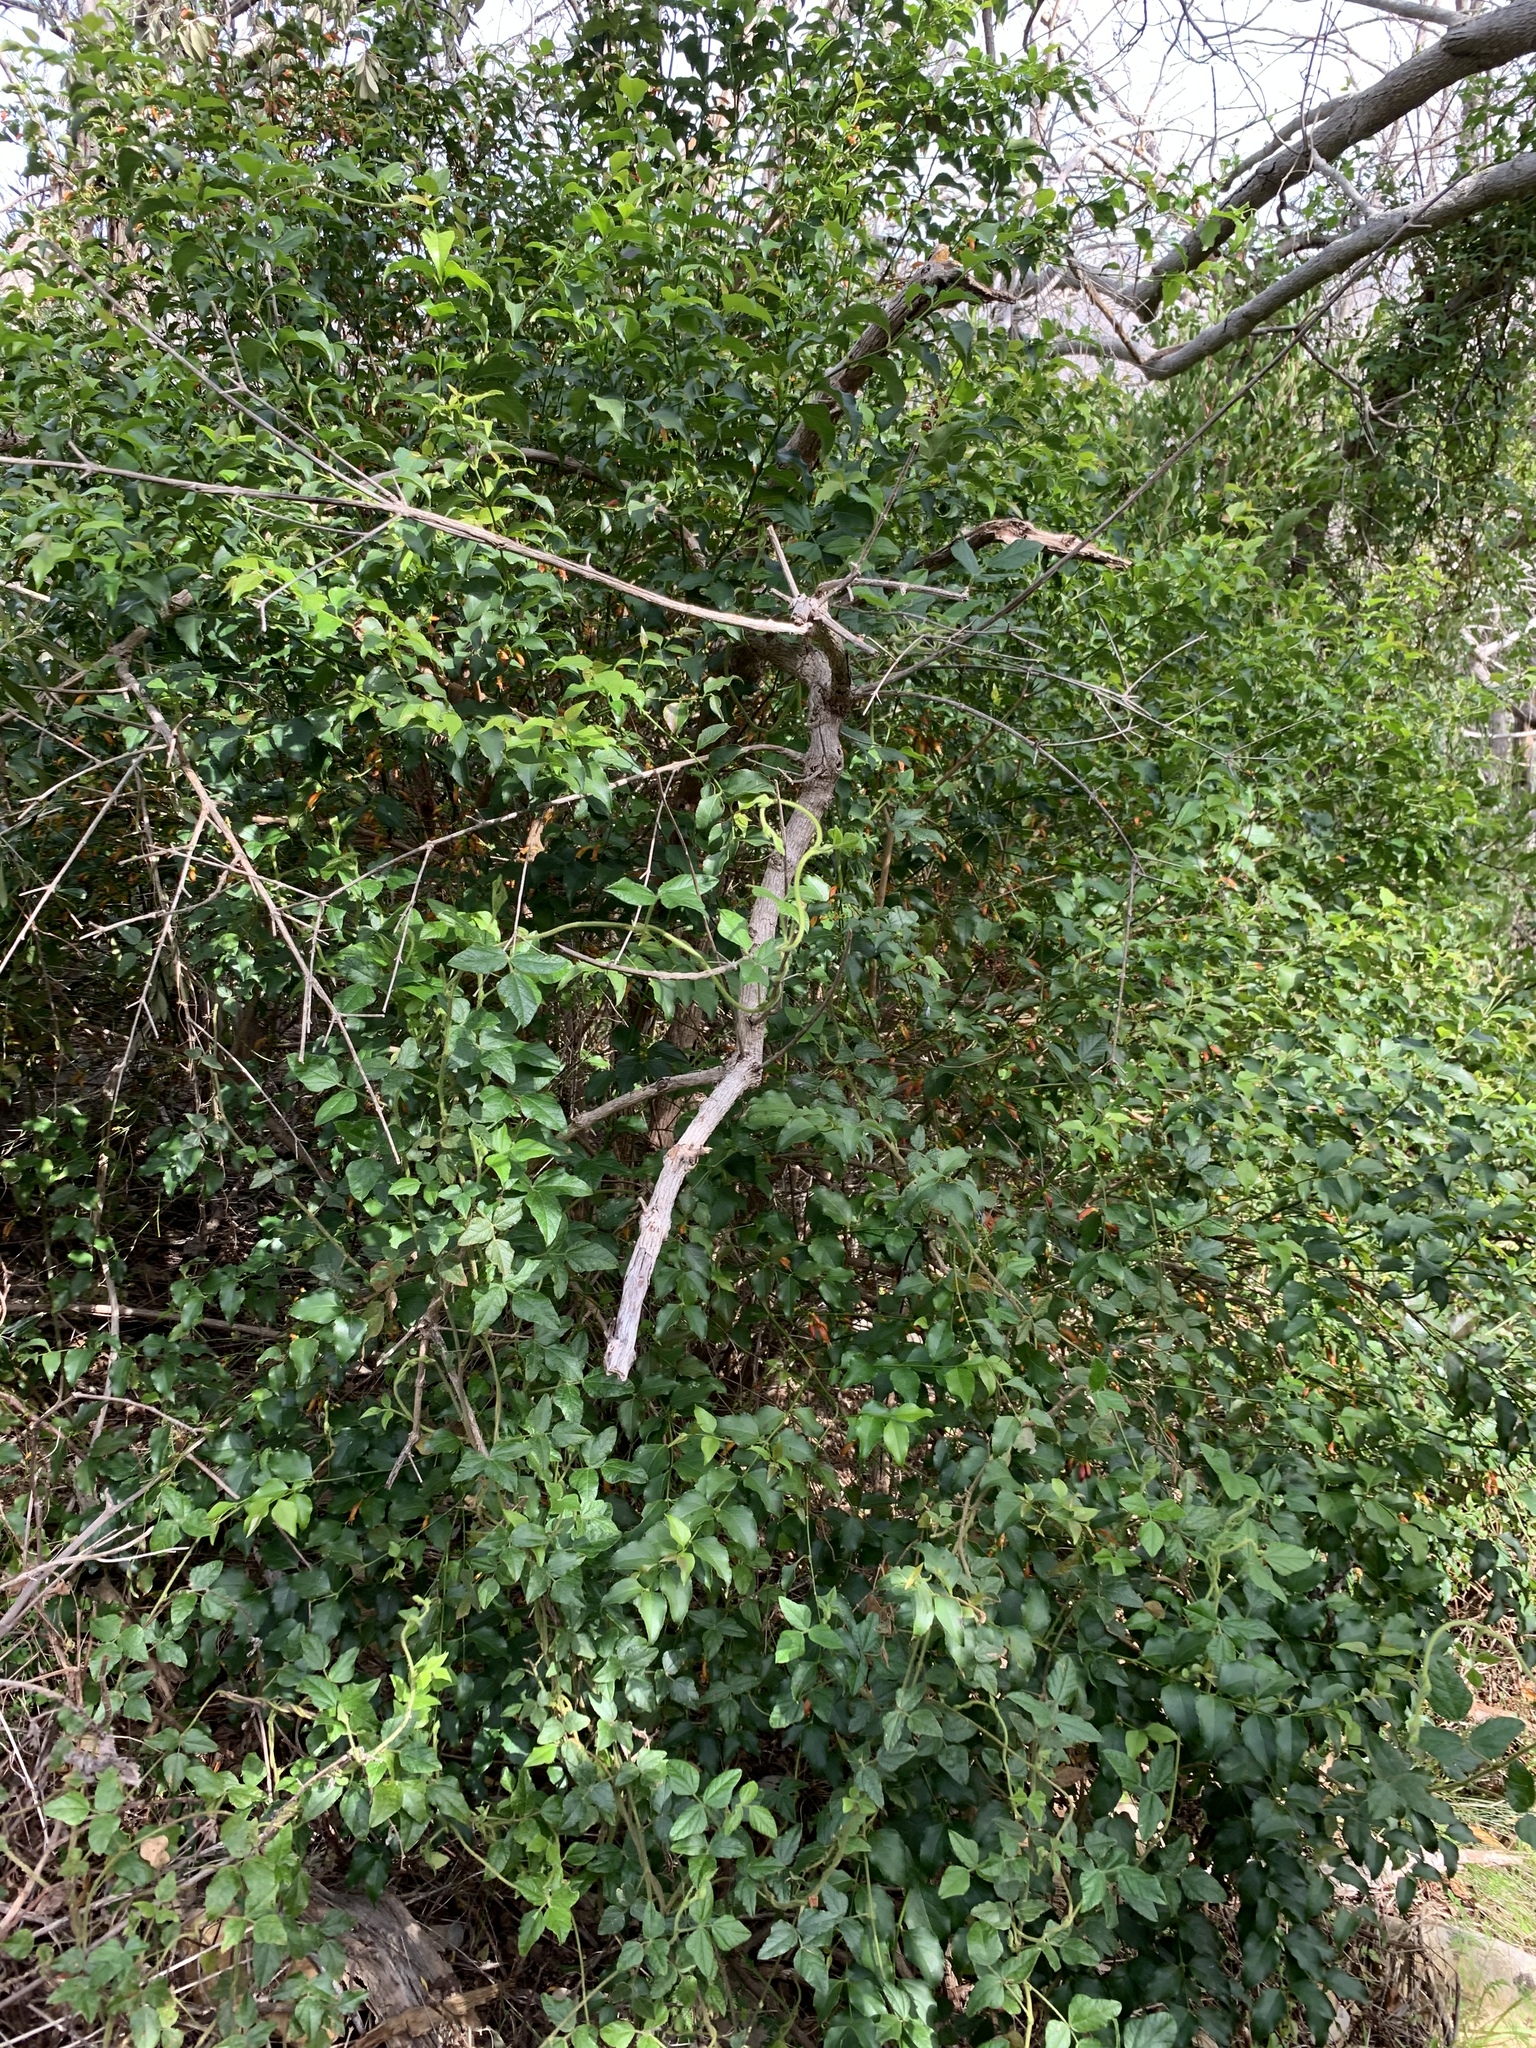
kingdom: Plantae
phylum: Tracheophyta
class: Magnoliopsida
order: Lamiales
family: Stilbaceae
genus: Halleria
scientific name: Halleria lucida
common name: Tree fuschia
